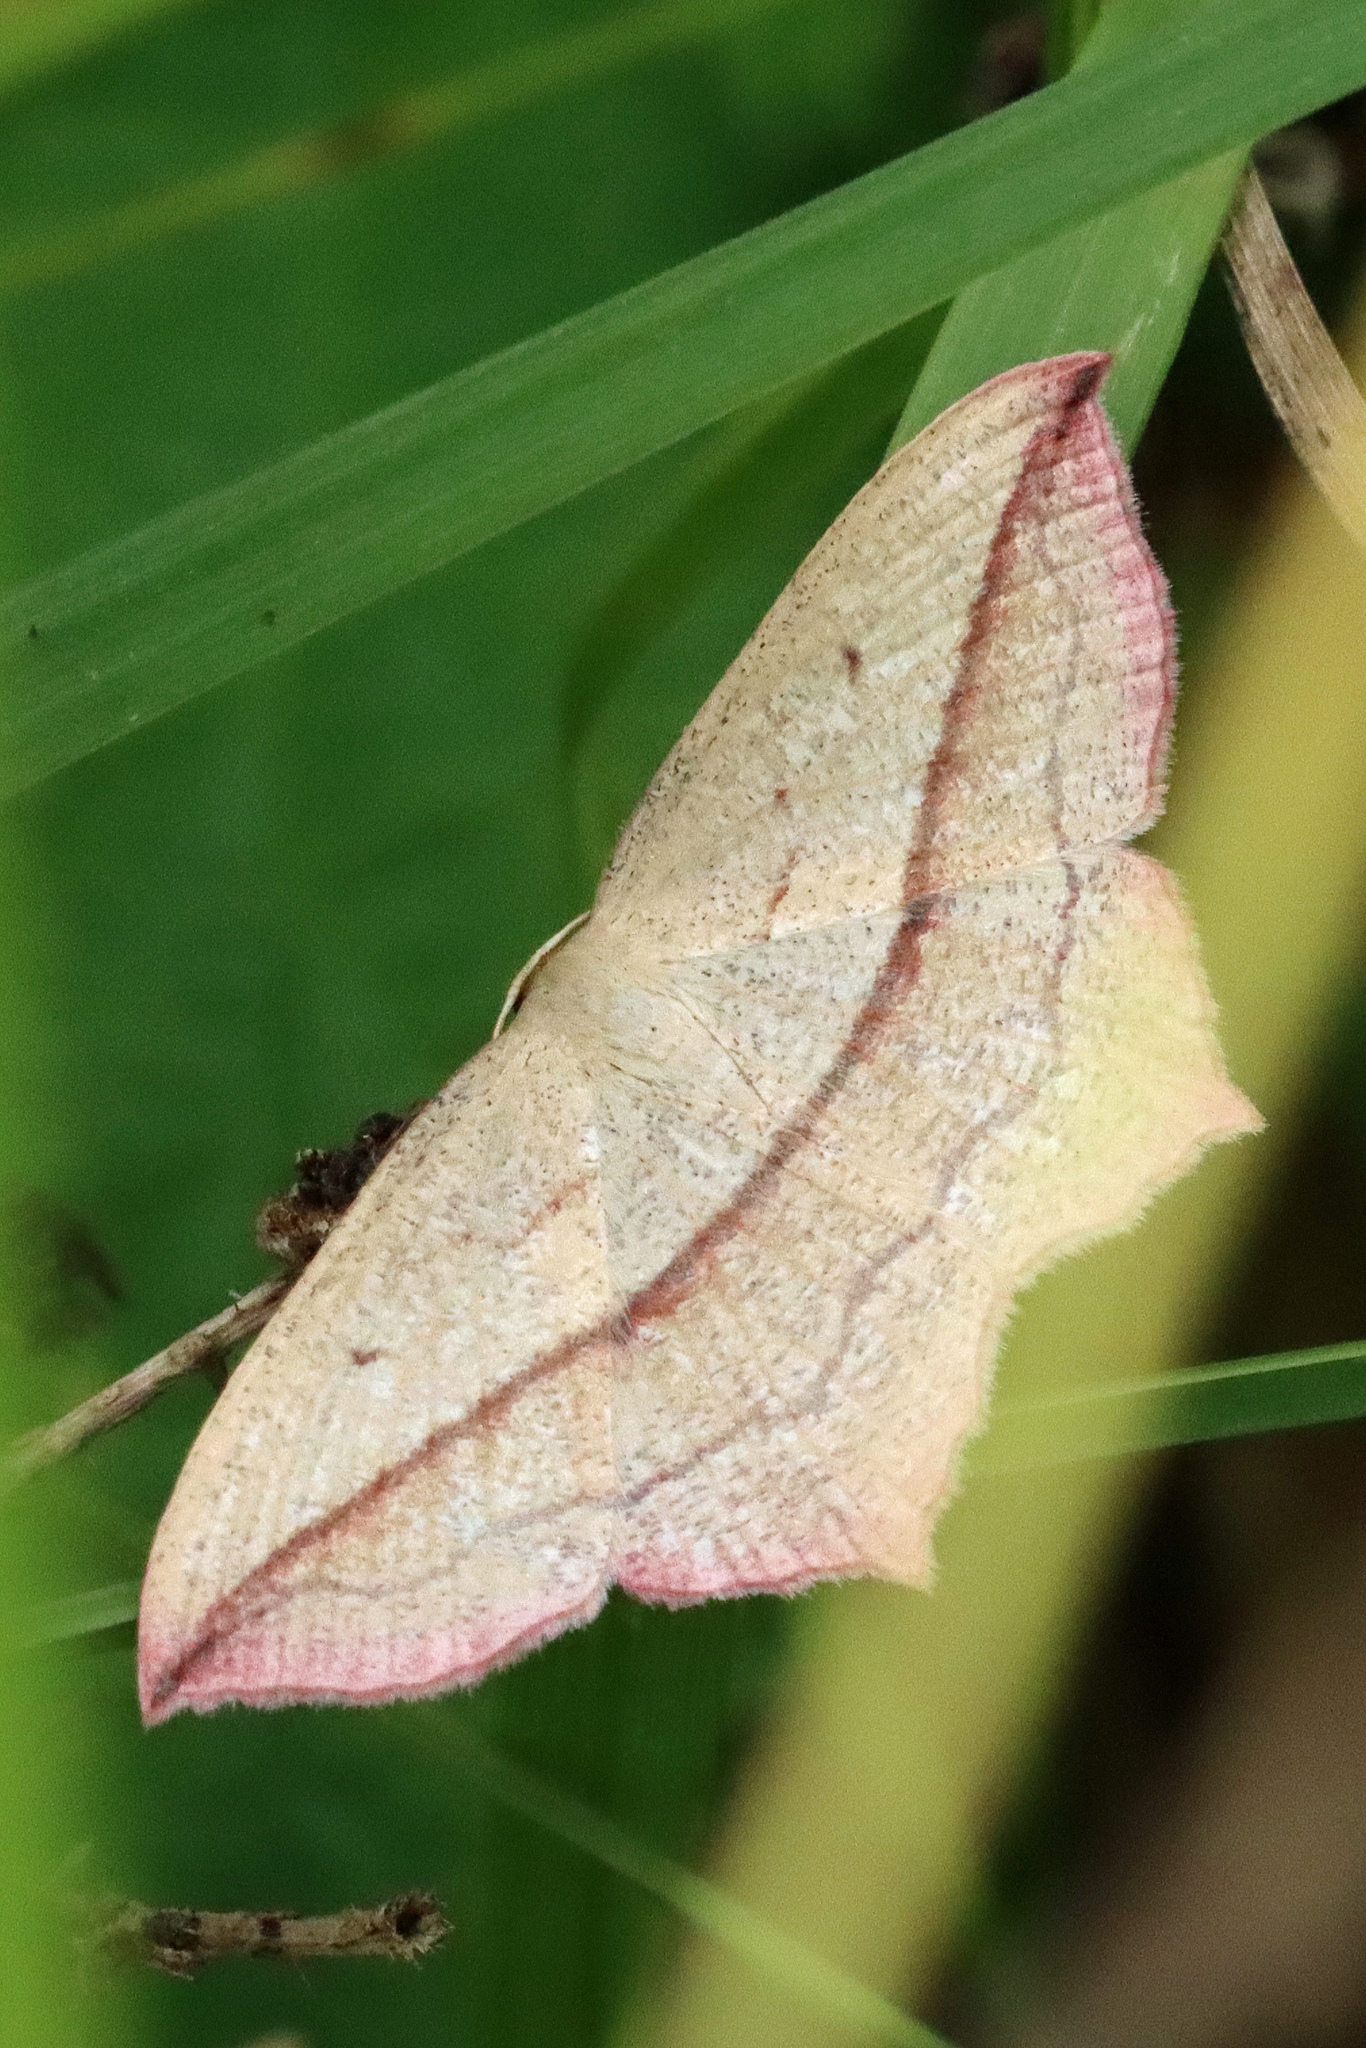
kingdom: Animalia
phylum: Arthropoda
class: Insecta
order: Lepidoptera
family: Geometridae
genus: Timandra
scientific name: Timandra comae
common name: Blood-vein
